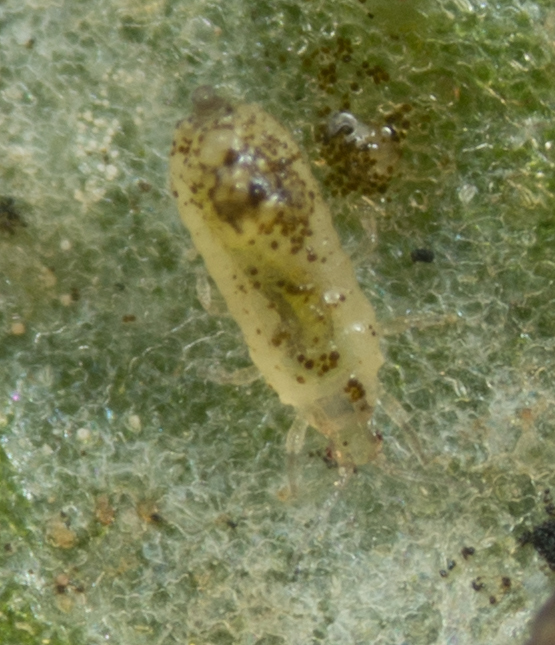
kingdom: Animalia
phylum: Arthropoda
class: Insecta
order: Thysanoptera
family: Thripidae
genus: Hercinothrips
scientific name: Hercinothrips femoralis
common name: Banded greenhouse thrips
